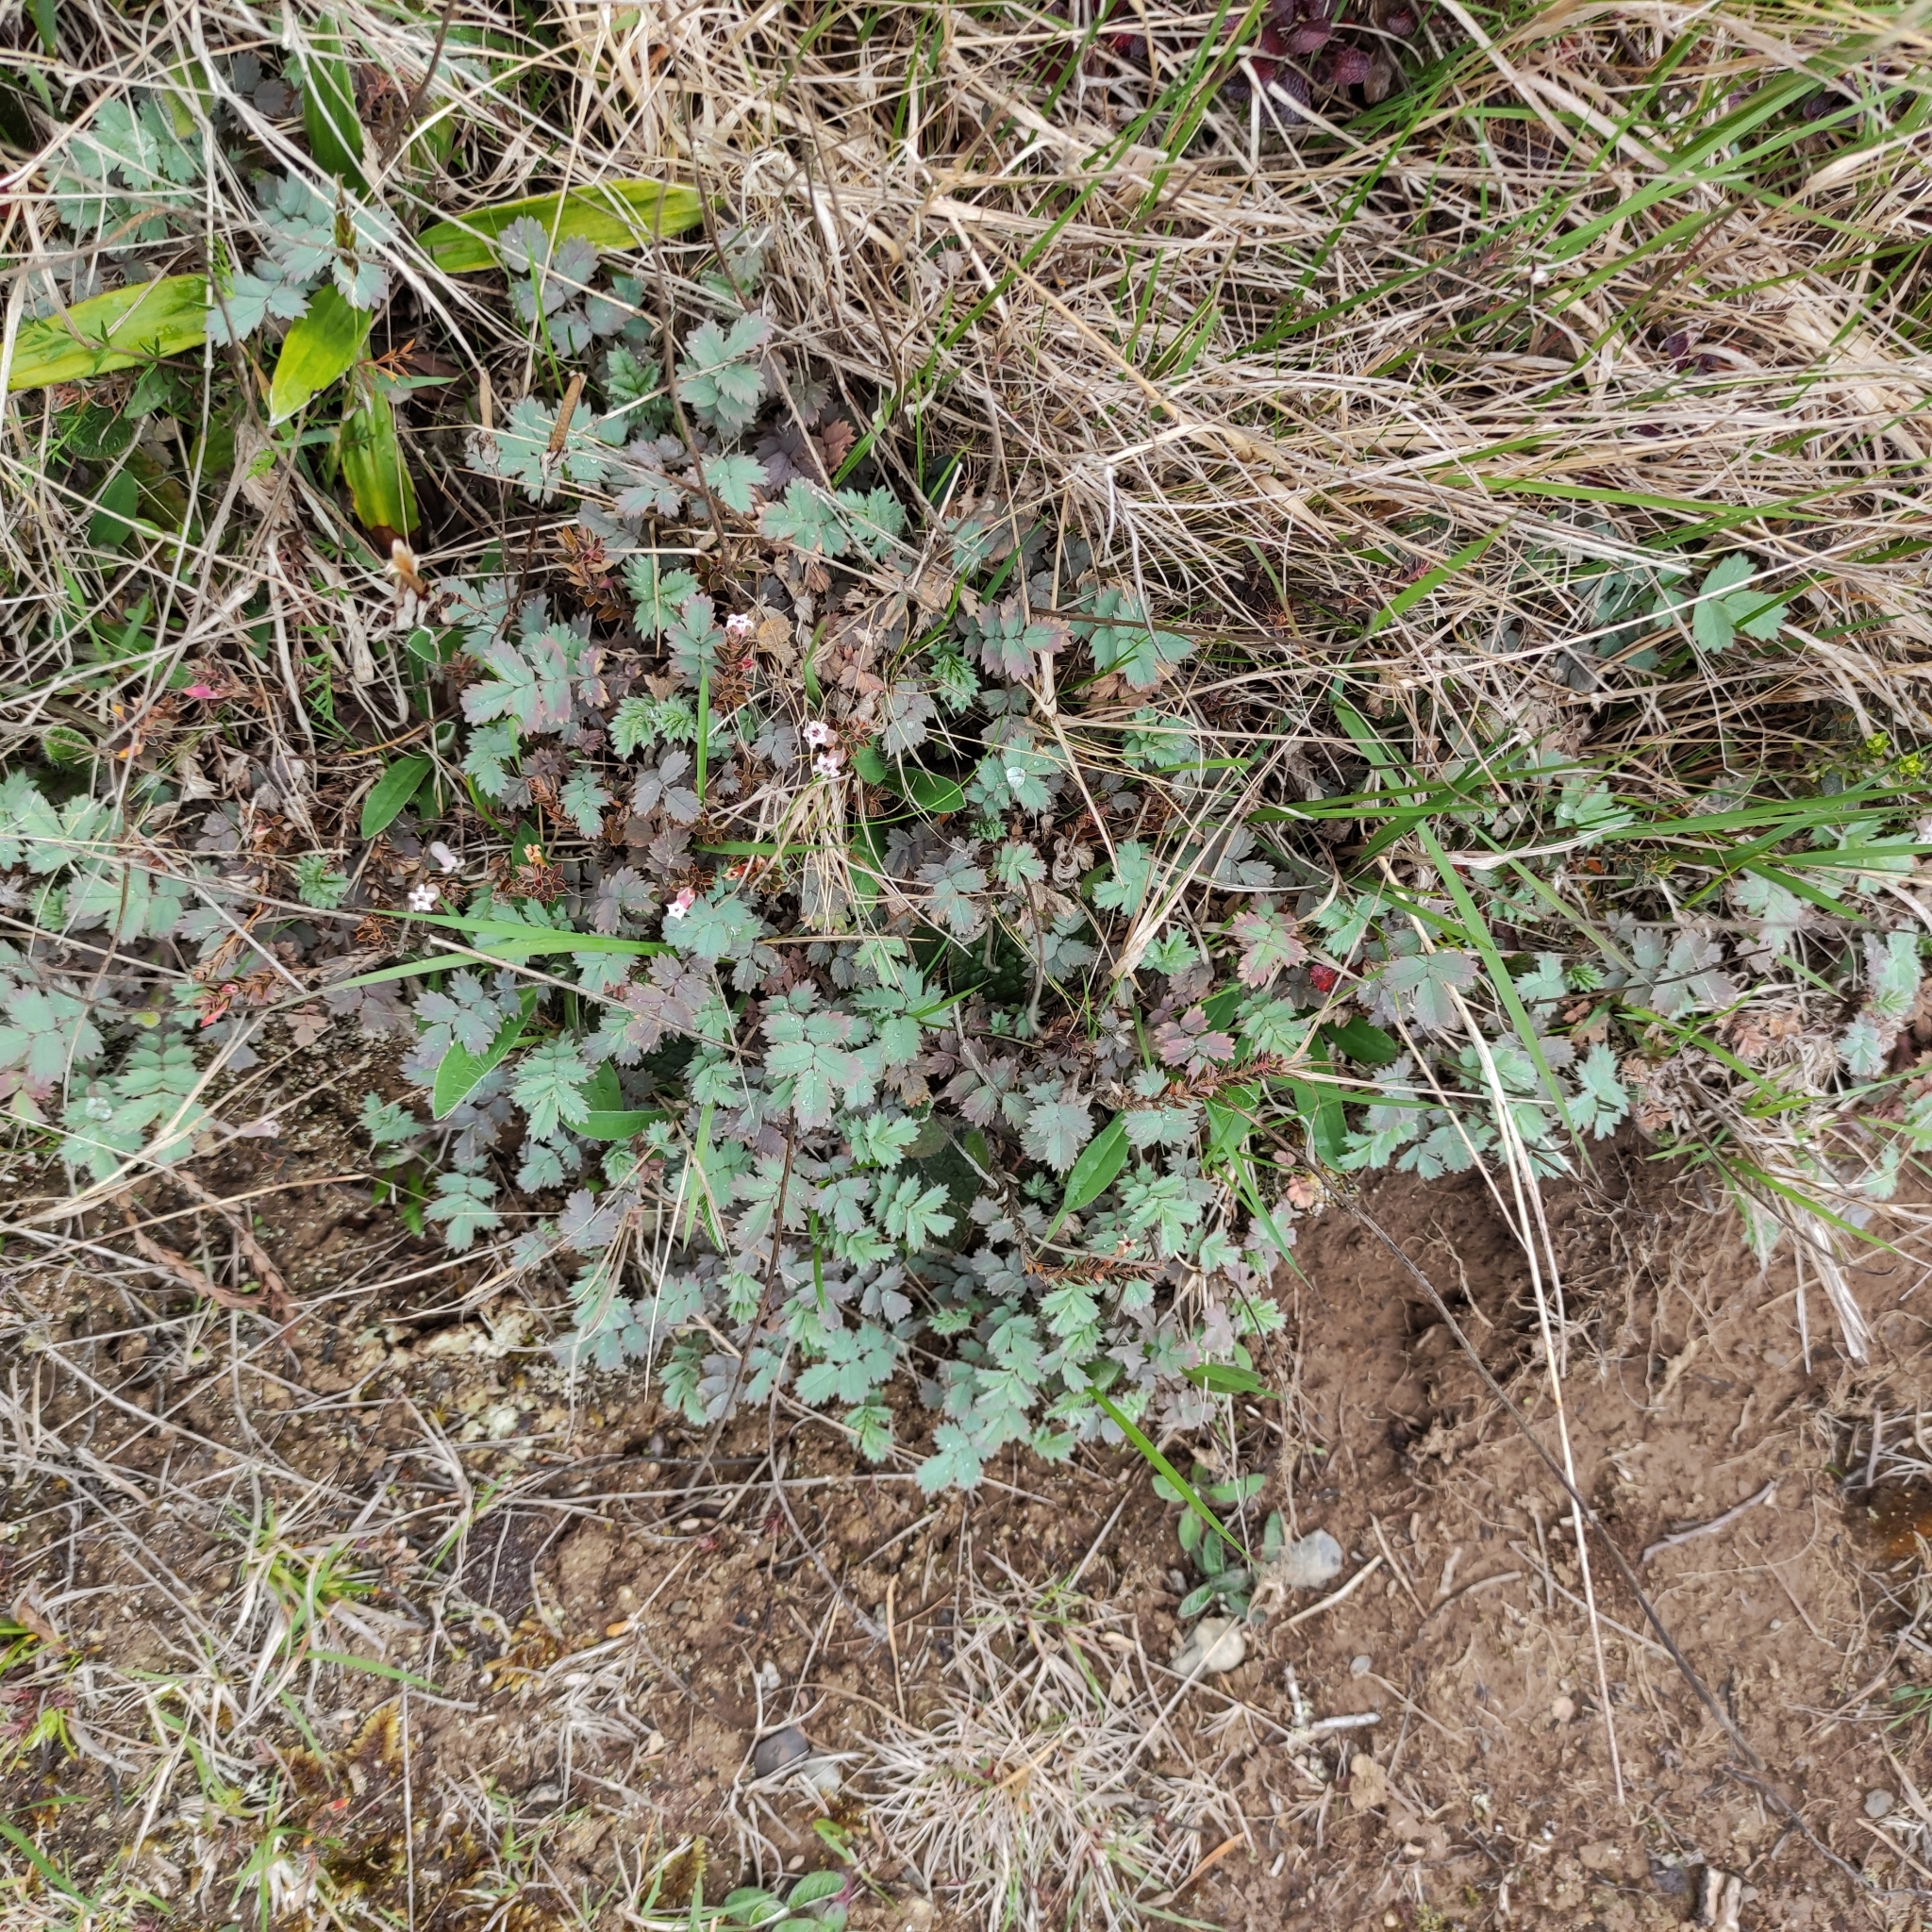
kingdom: Plantae
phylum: Tracheophyta
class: Magnoliopsida
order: Rosales
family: Rosaceae
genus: Acaena
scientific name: Acaena caesiiglauca
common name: Glaucous pirri-pirri-bur
